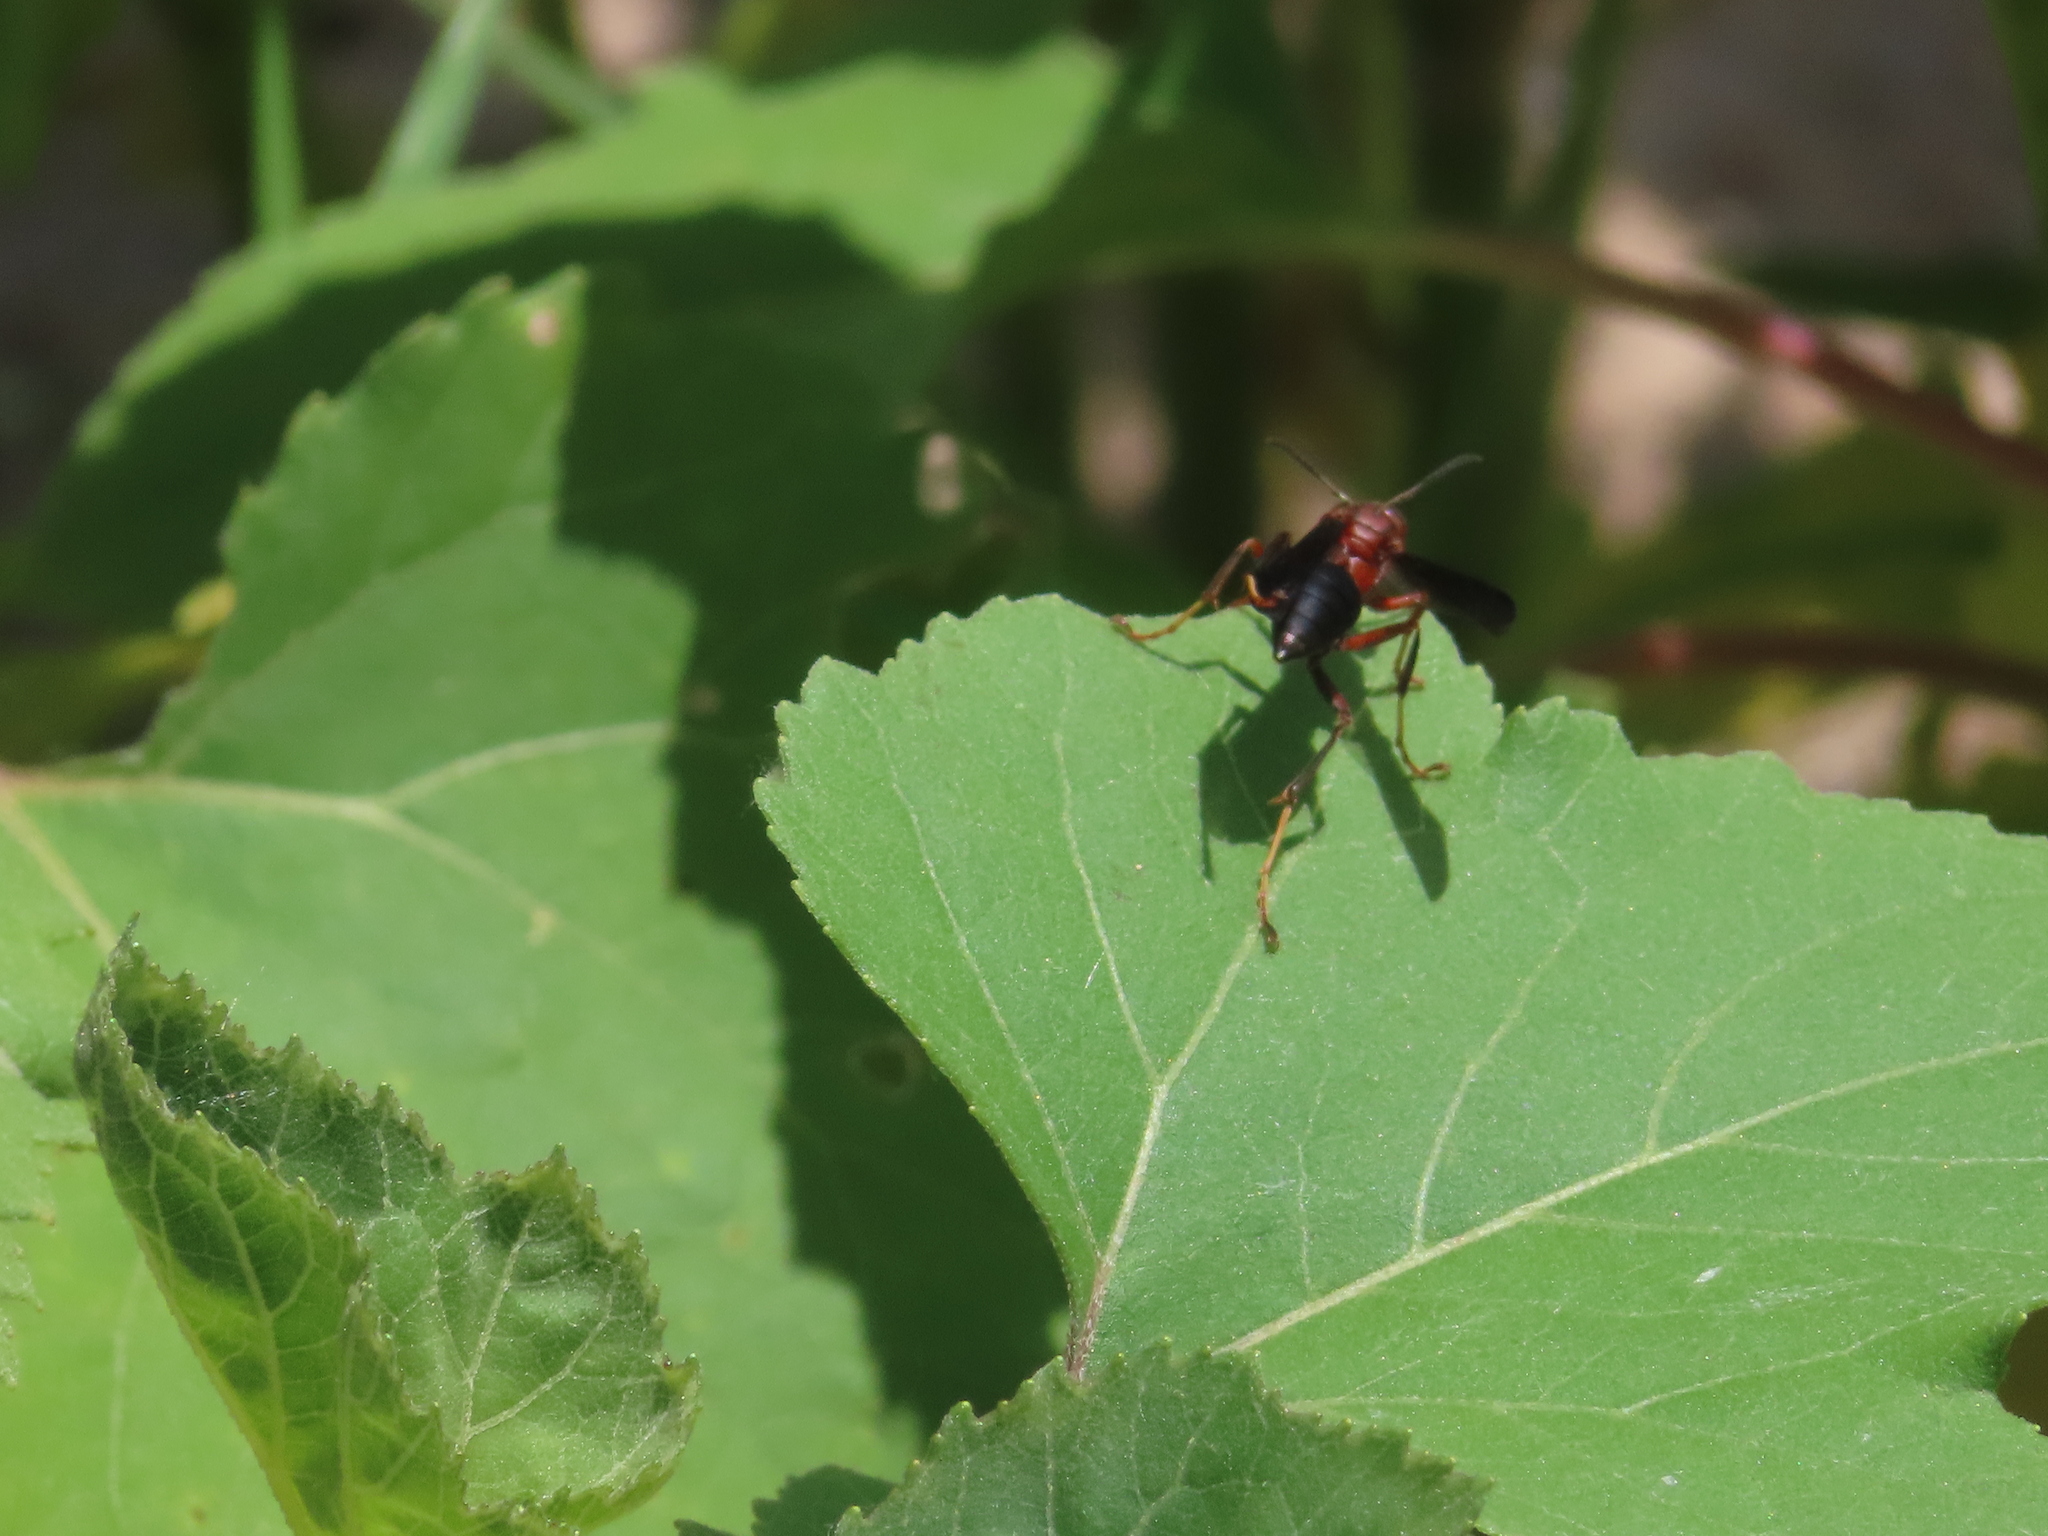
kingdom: Animalia
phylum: Arthropoda
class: Insecta
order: Hymenoptera
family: Eumenidae
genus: Polistes
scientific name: Polistes metricus
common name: Metric paper wasp
